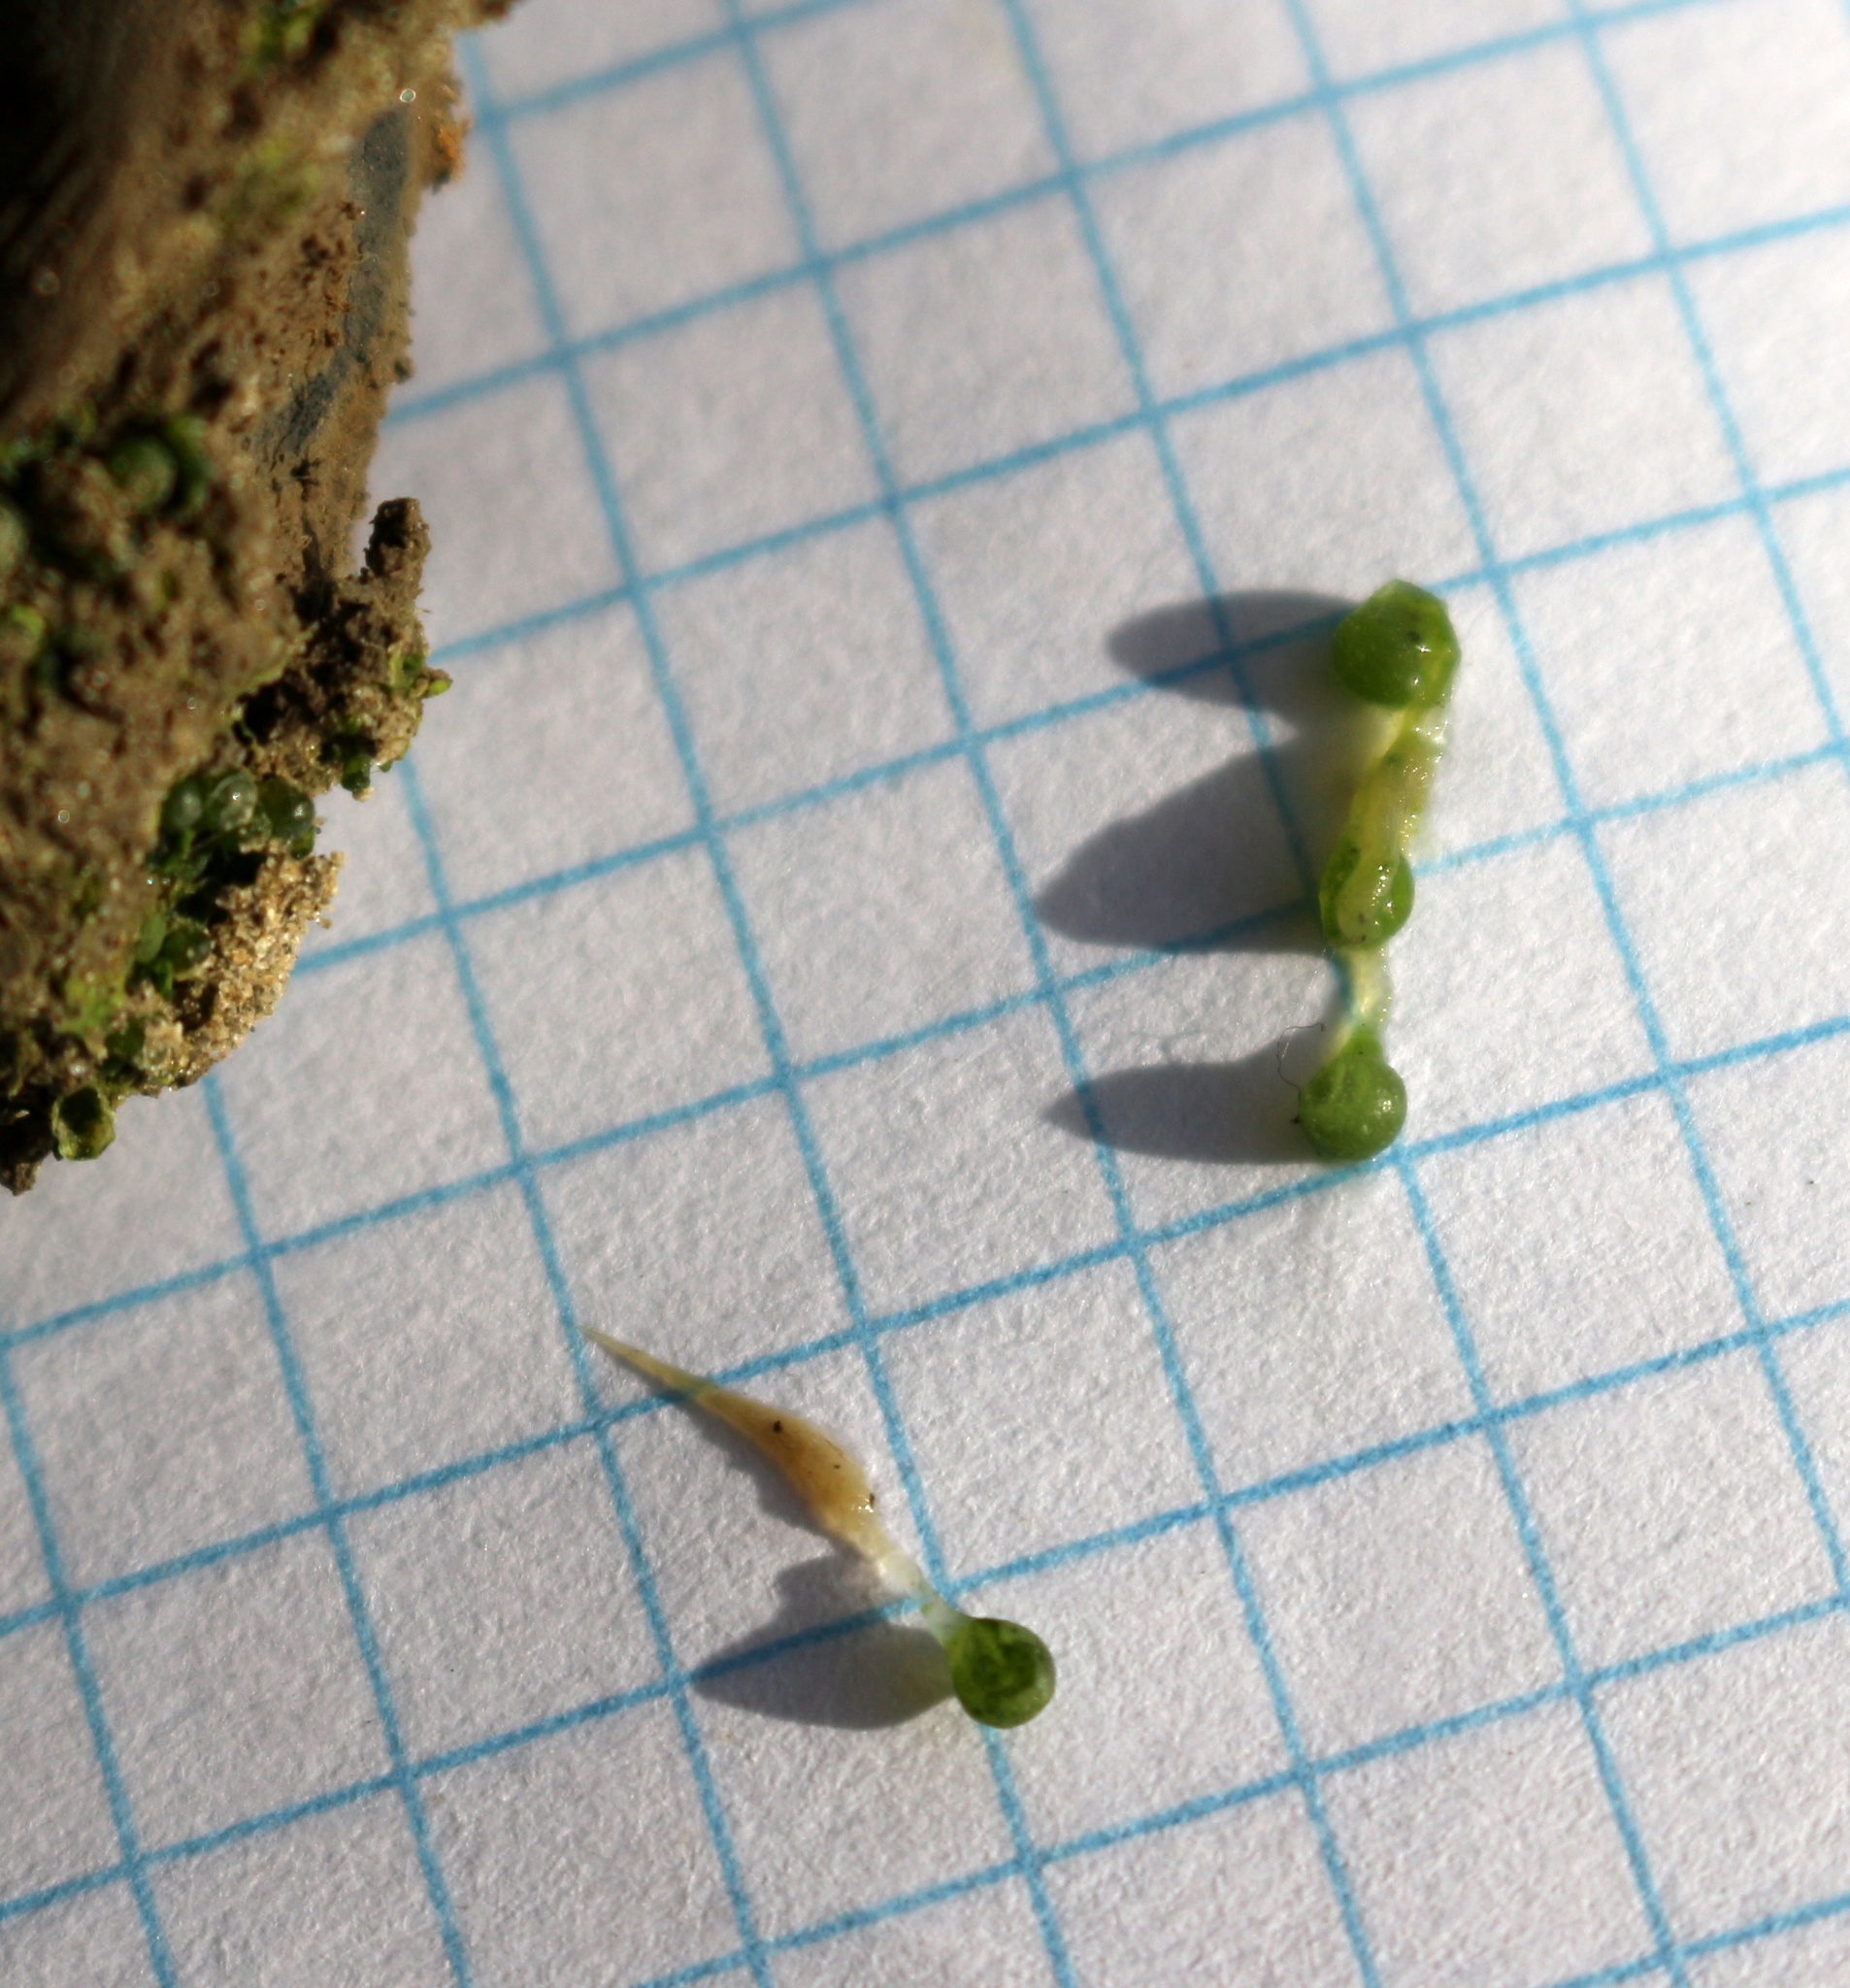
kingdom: Chromista
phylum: Ochrophyta
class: Xanthophyceae
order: Botrydiales
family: Botrydiaceae
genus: Botrydium
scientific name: Botrydium granulatum
